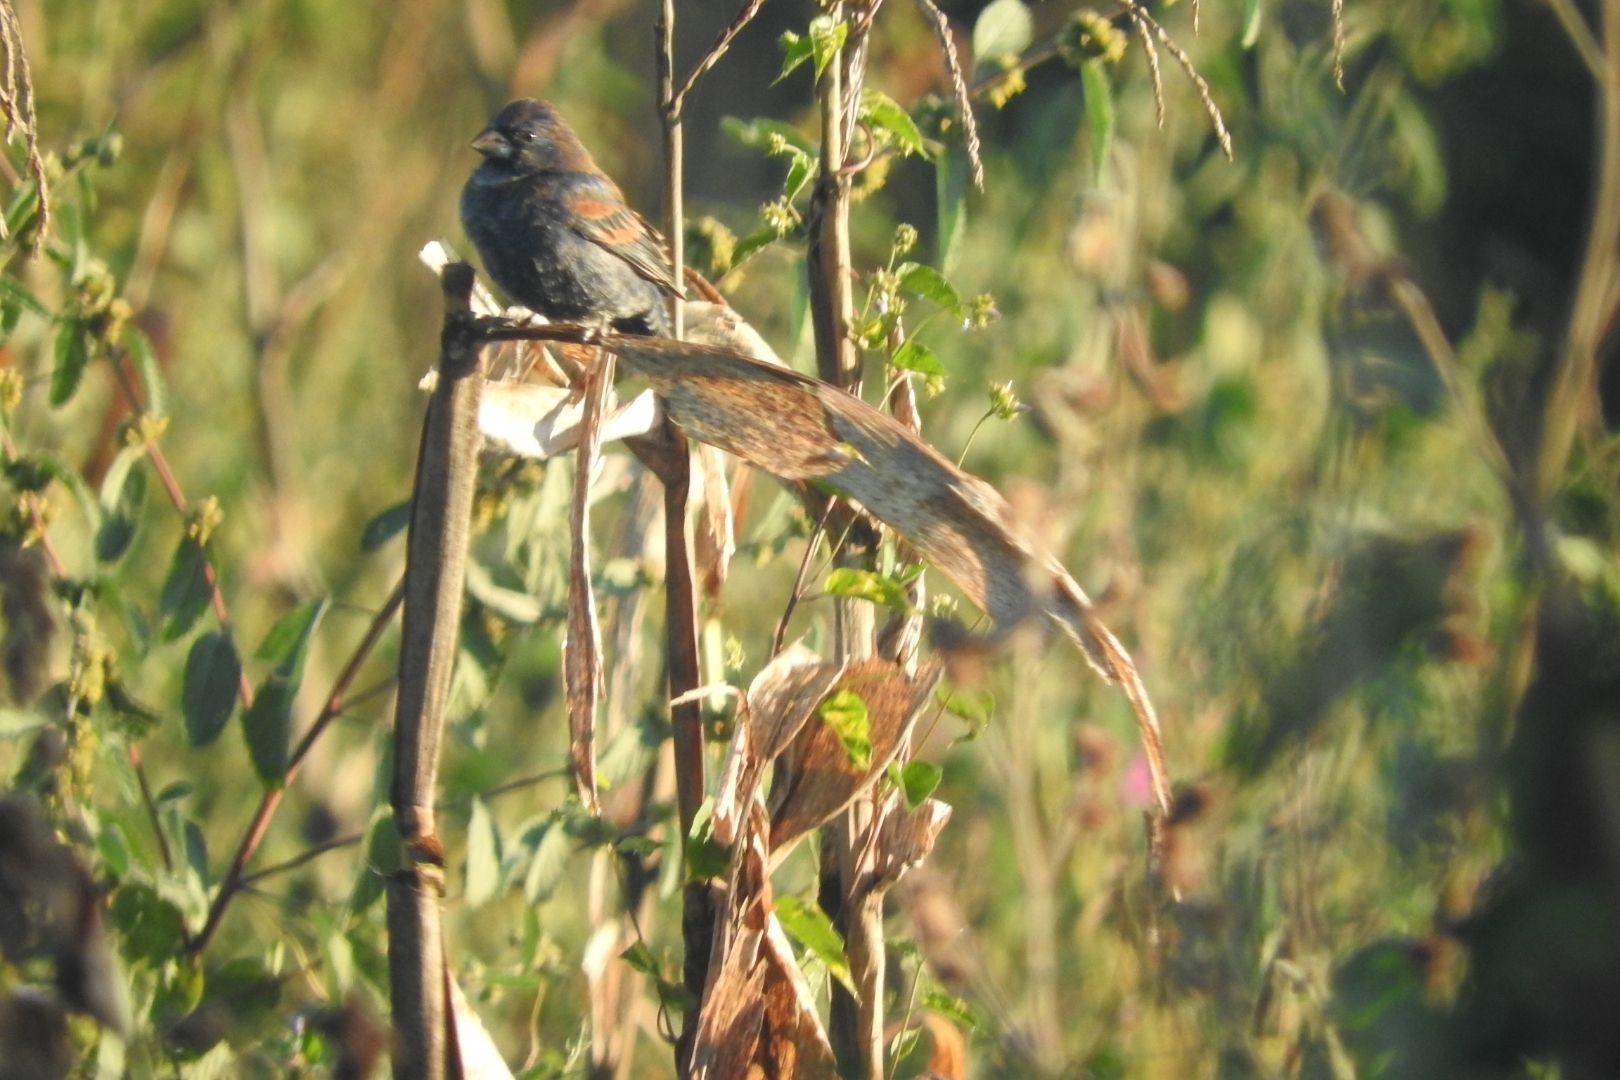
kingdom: Animalia
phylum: Chordata
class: Aves
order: Passeriformes
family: Cardinalidae
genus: Passerina
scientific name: Passerina caerulea
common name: Blue grosbeak
